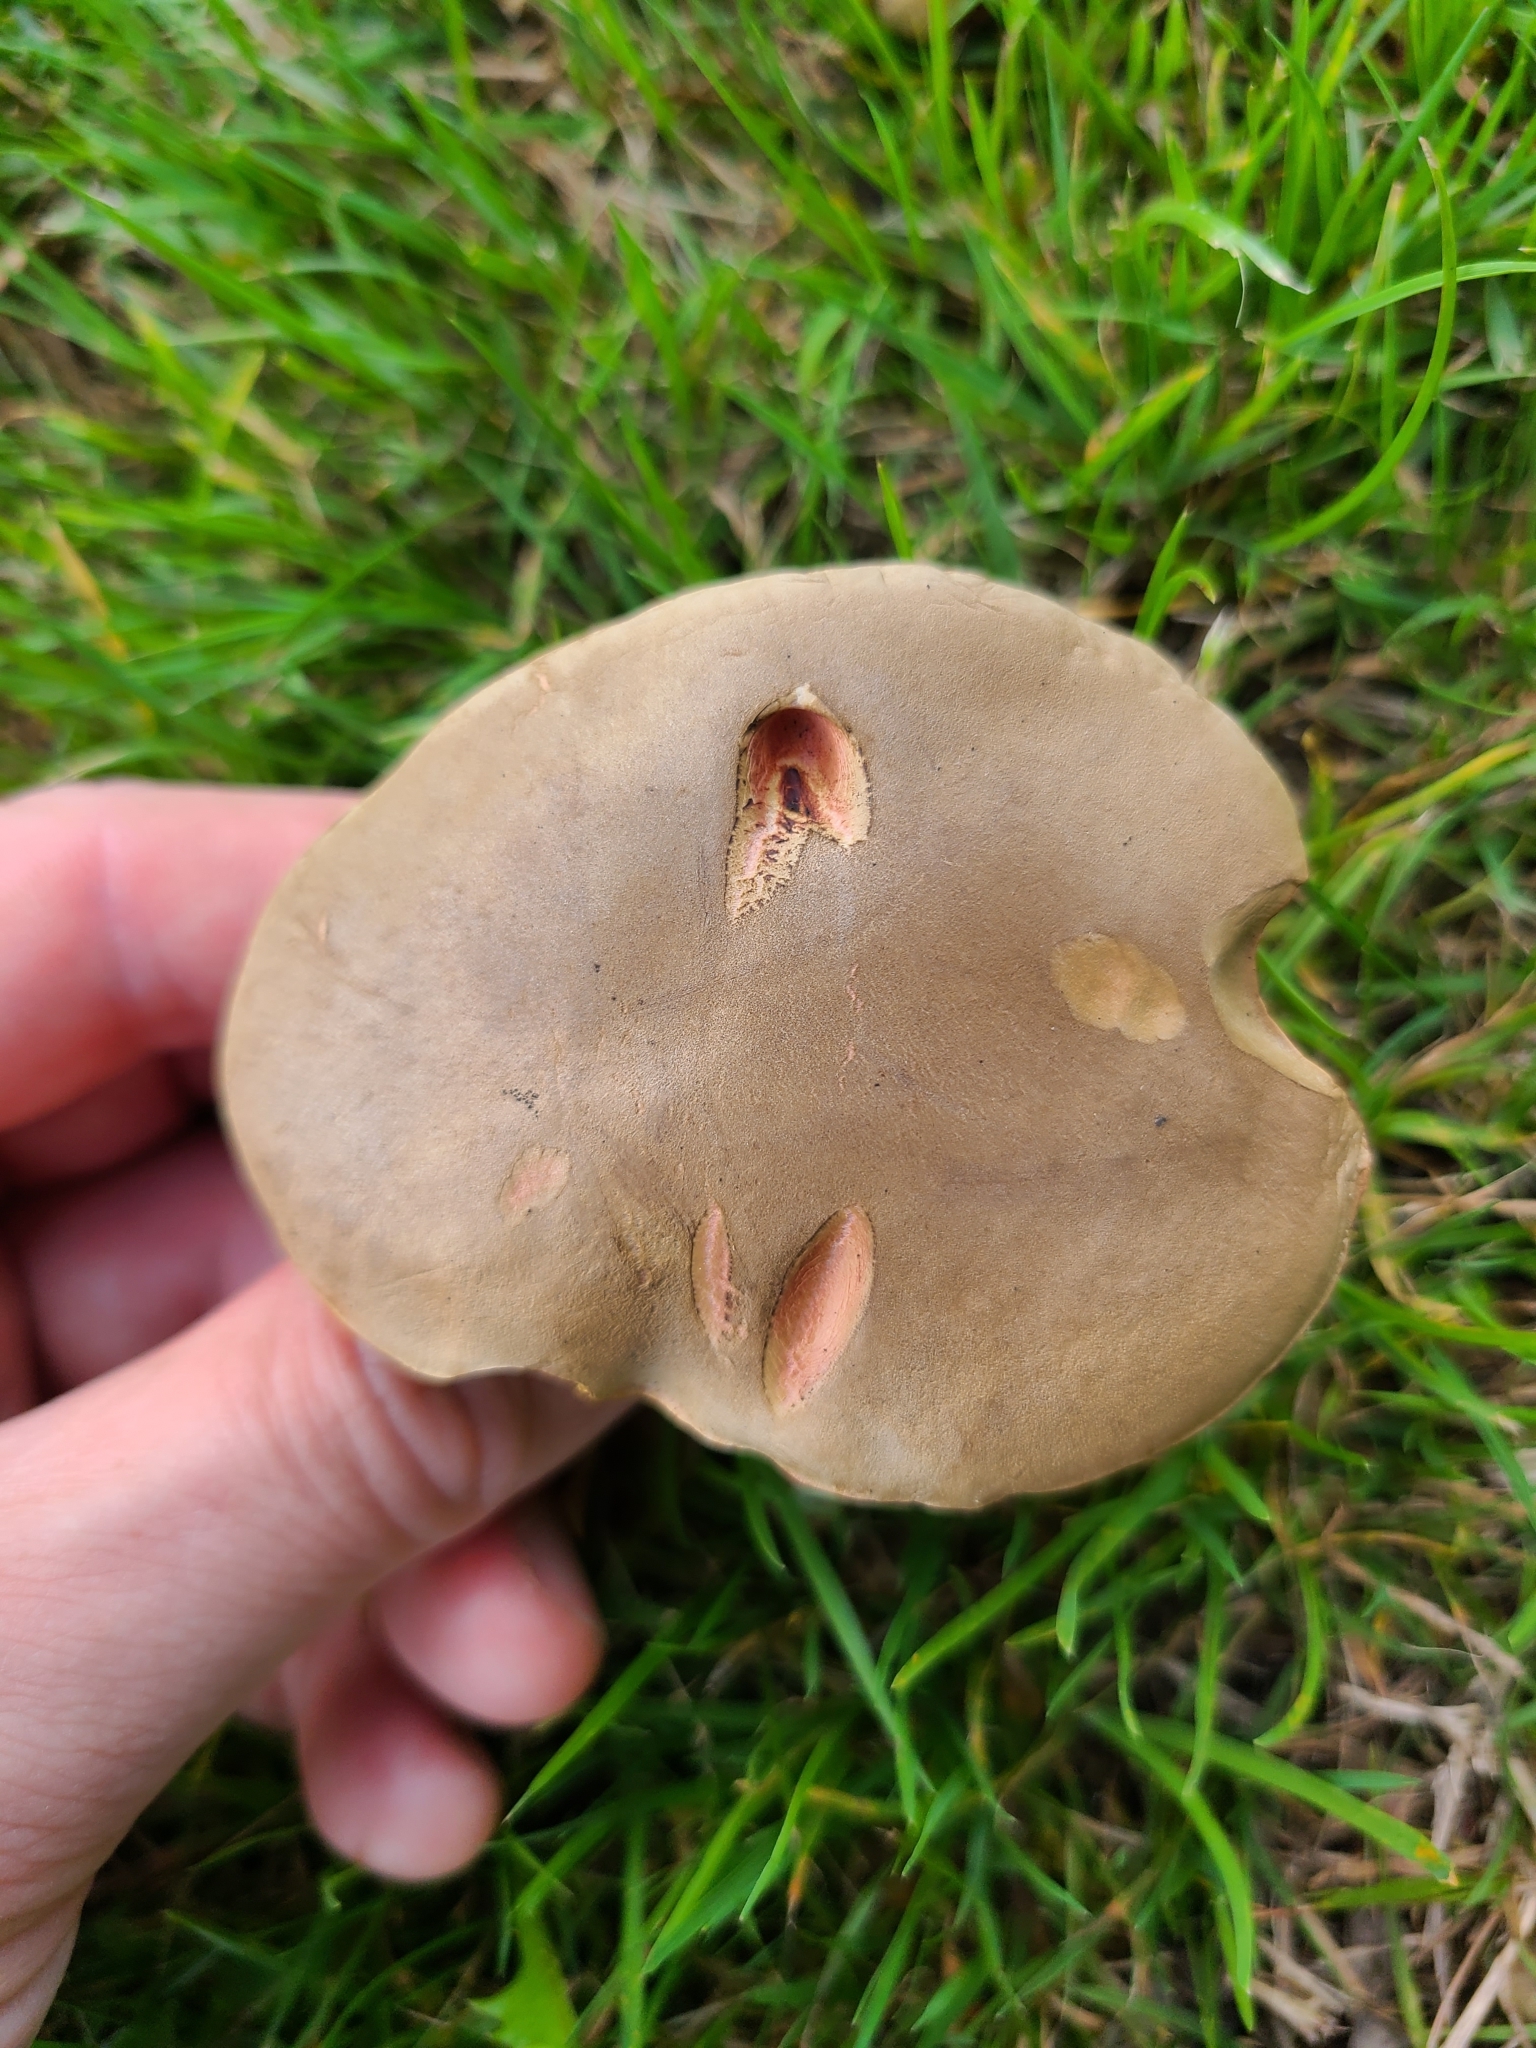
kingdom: Fungi
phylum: Basidiomycota
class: Agaricomycetes
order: Boletales
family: Boletaceae
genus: Xerocomellus
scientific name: Xerocomellus cisalpinus
